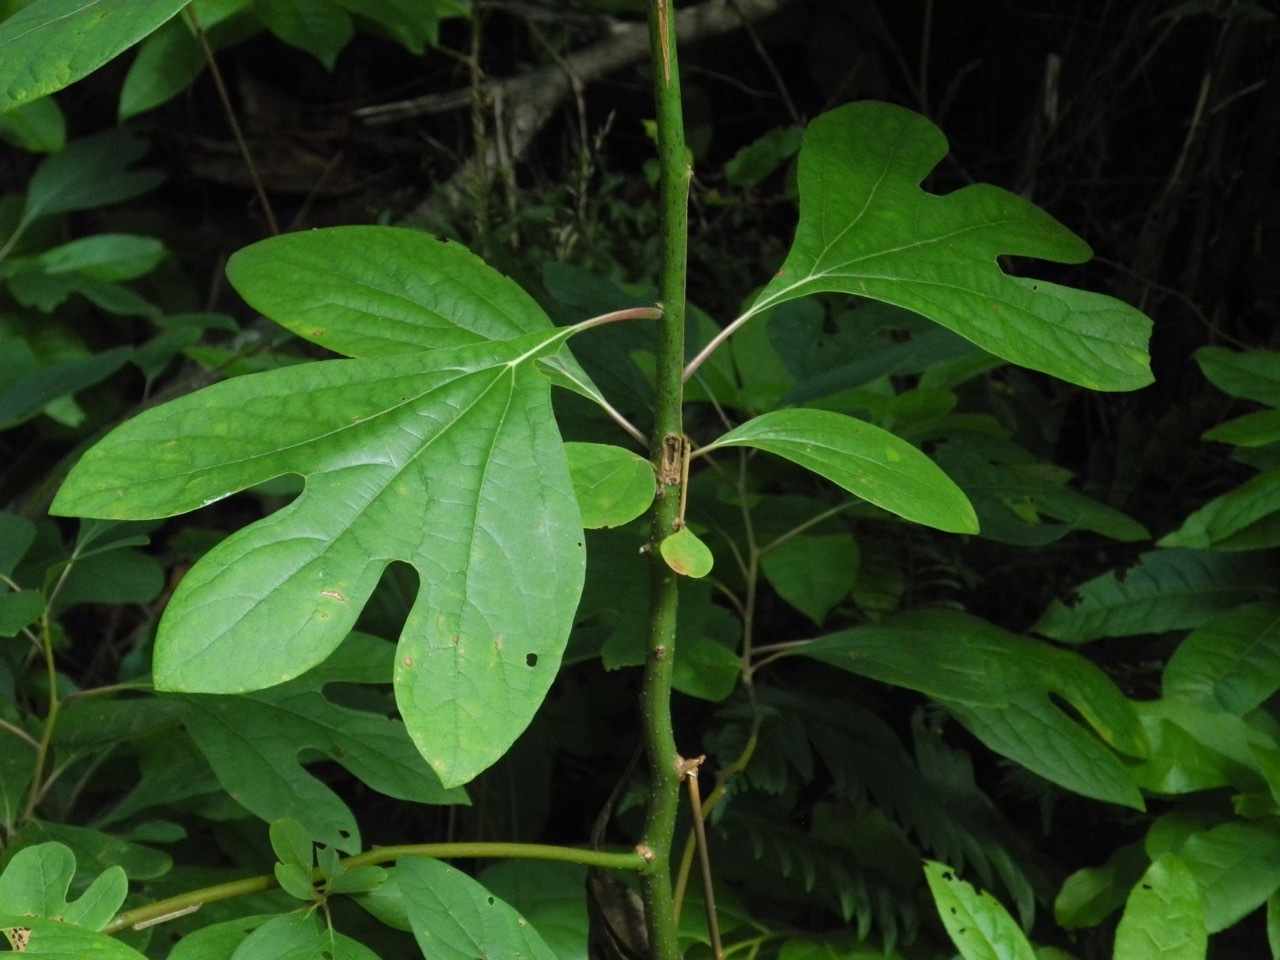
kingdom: Plantae
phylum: Tracheophyta
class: Magnoliopsida
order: Laurales
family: Lauraceae
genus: Sassafras
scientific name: Sassafras albidum
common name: Sassafras
